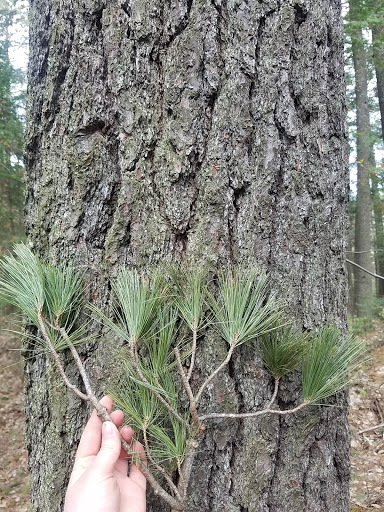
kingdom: Plantae
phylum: Tracheophyta
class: Pinopsida
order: Pinales
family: Pinaceae
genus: Pinus
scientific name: Pinus strobus
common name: Weymouth pine
